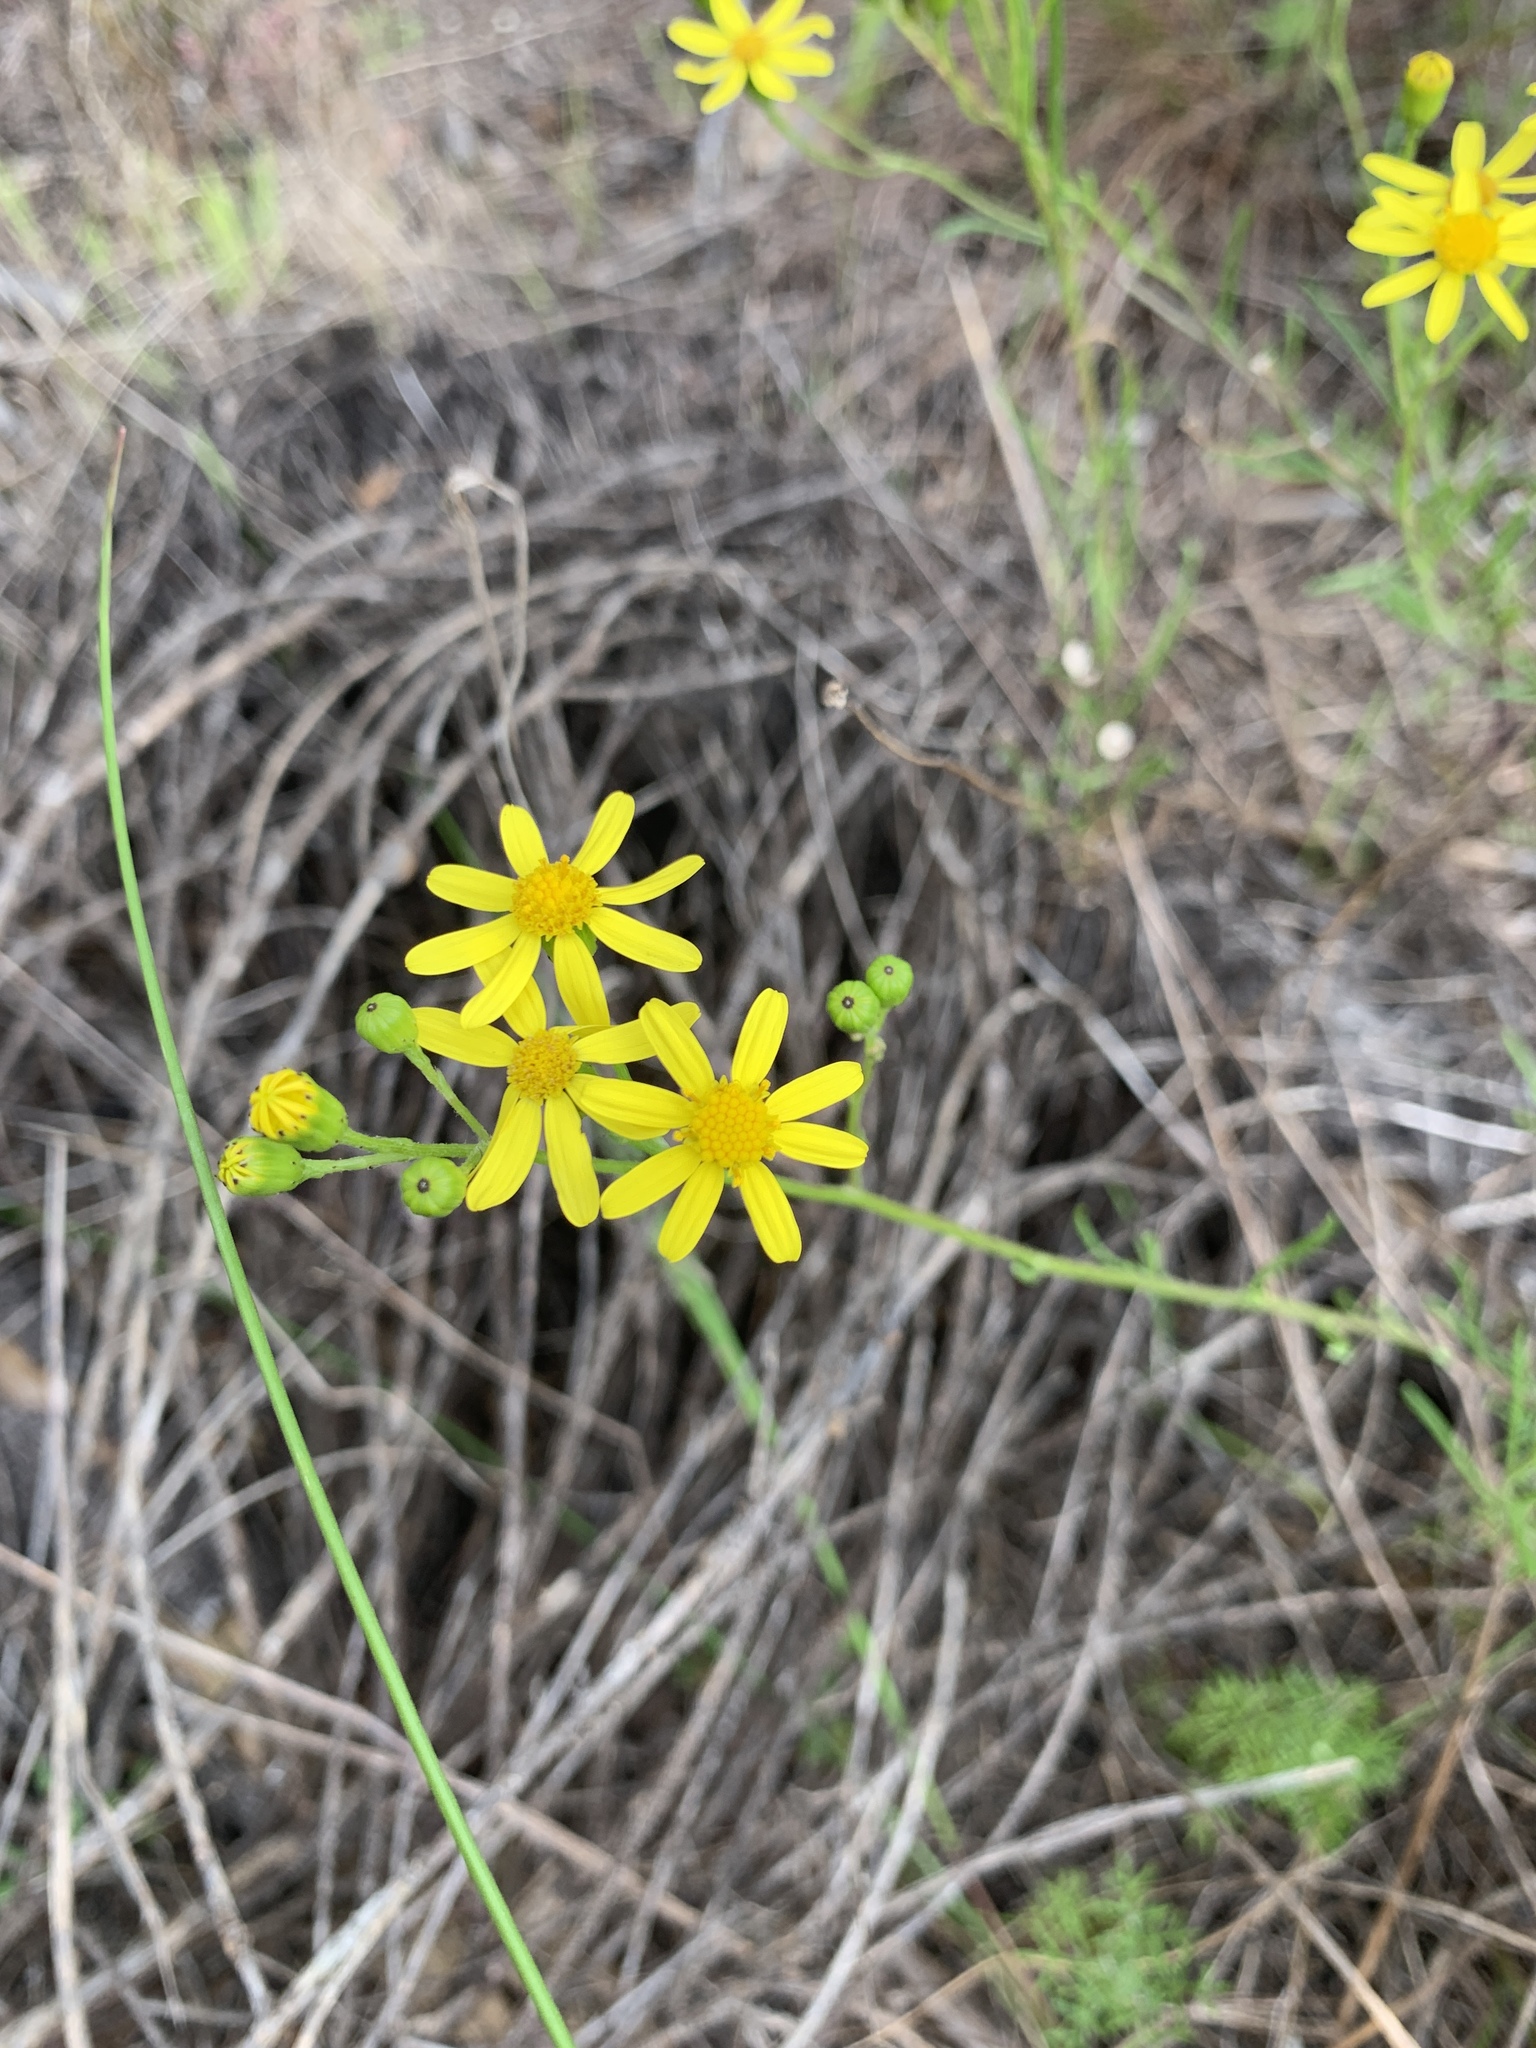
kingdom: Plantae
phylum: Tracheophyta
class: Magnoliopsida
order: Asterales
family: Asteraceae
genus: Senecio
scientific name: Senecio burchellii
